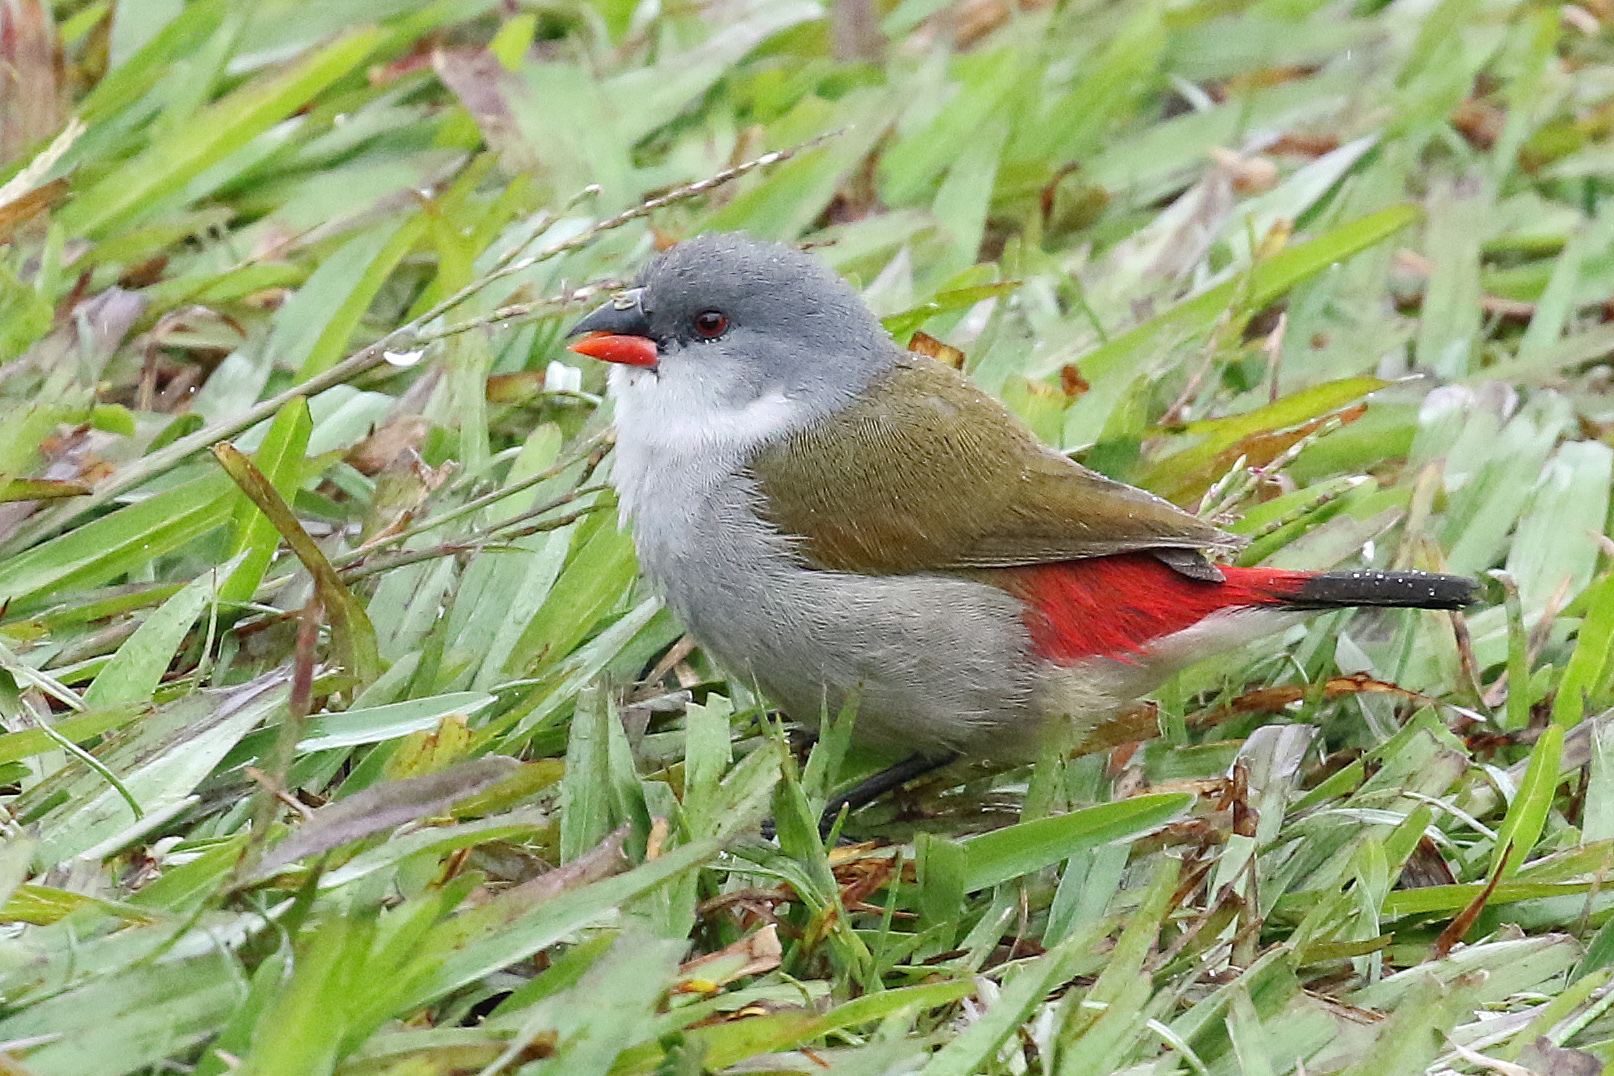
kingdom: Animalia
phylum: Chordata
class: Aves
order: Passeriformes
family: Estrildidae
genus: Coccopygia
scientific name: Coccopygia melanotis
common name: Swee waxbill
